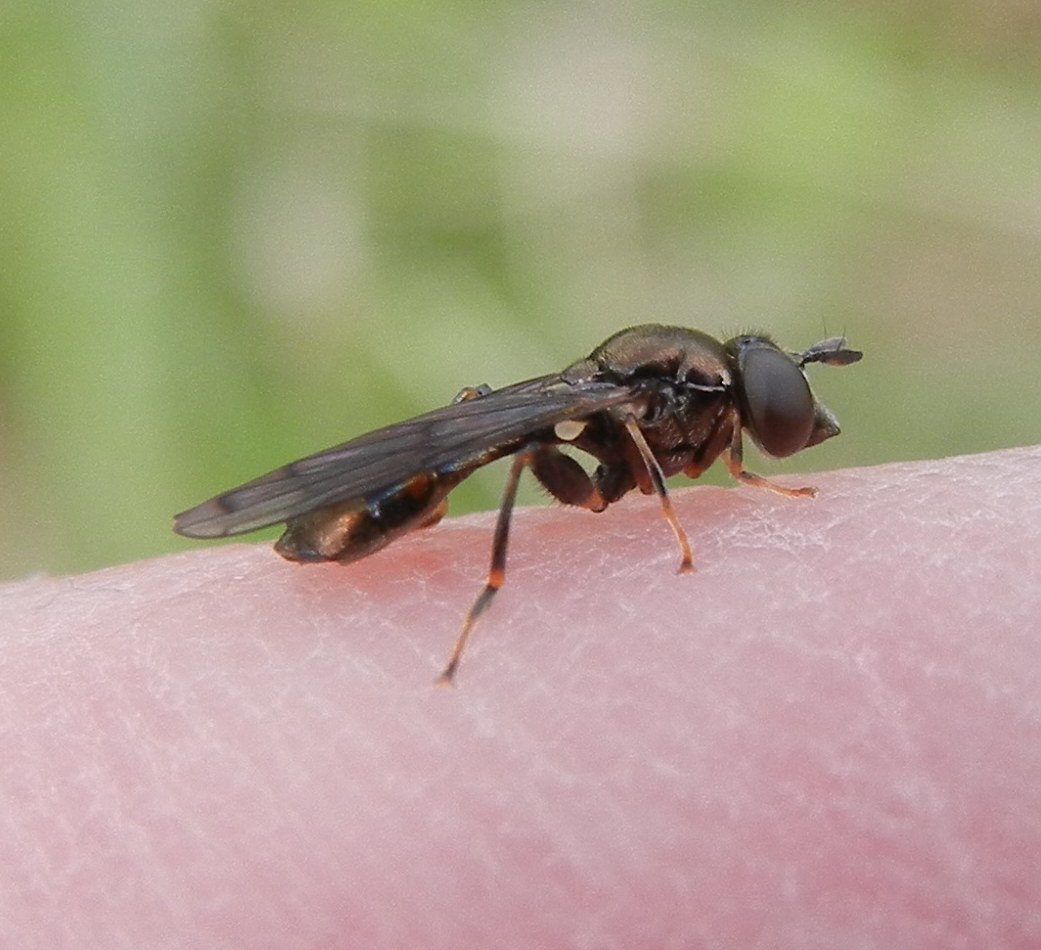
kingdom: Animalia
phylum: Arthropoda
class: Insecta
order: Diptera
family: Syrphidae
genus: Neoascia
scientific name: Neoascia
